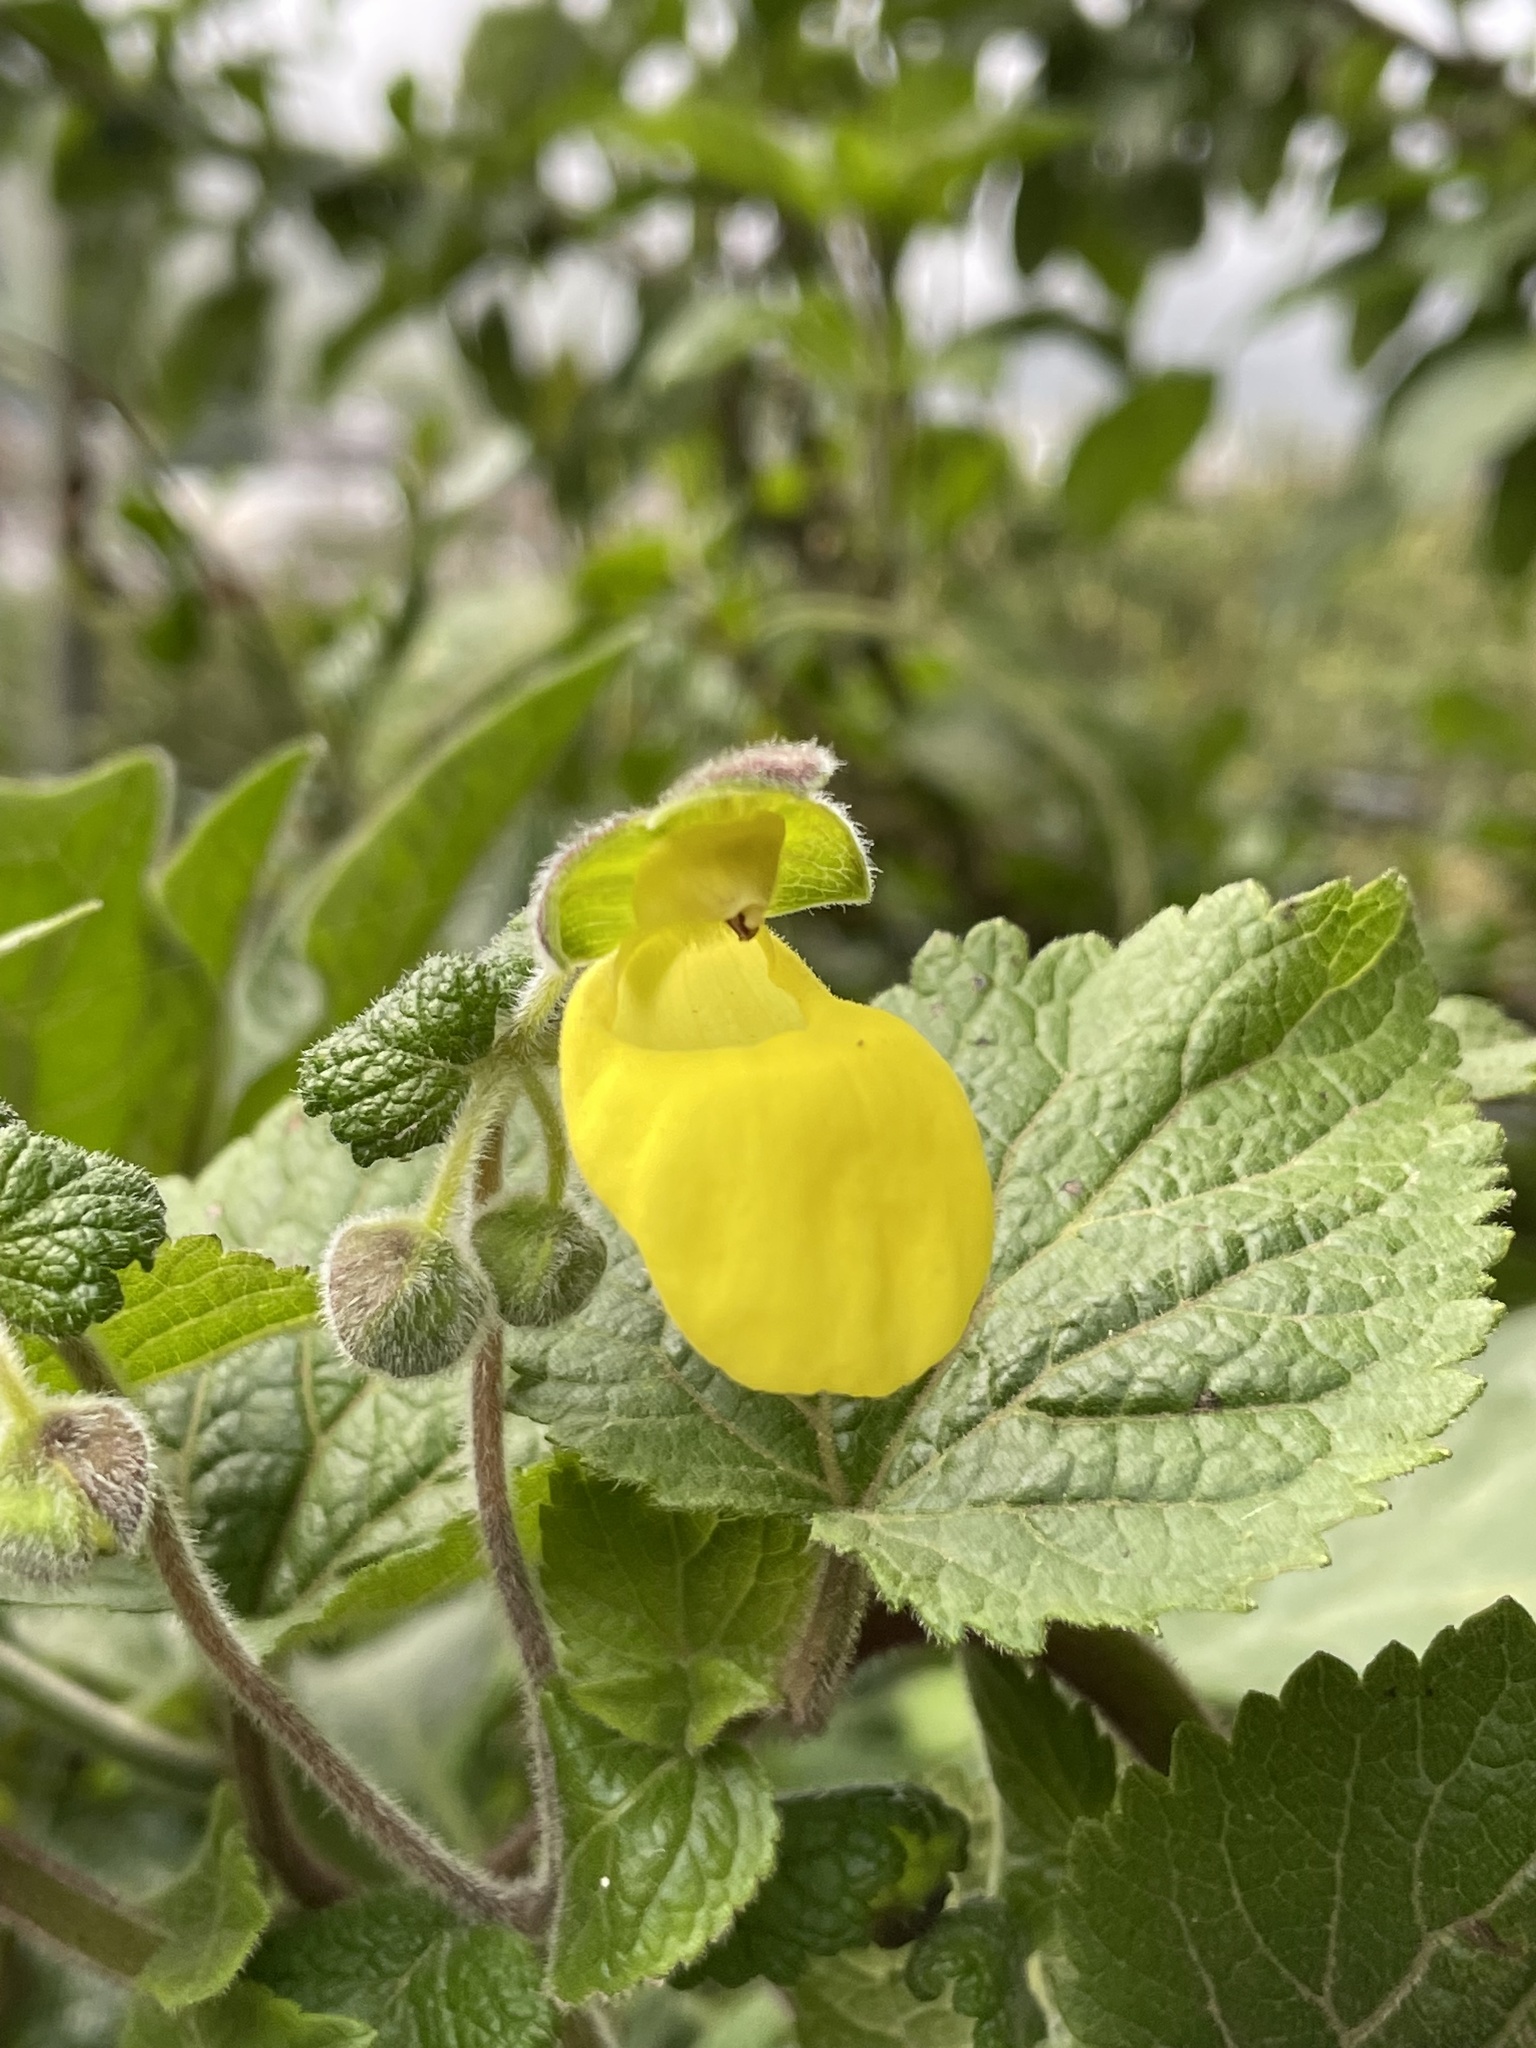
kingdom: Plantae
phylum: Tracheophyta
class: Magnoliopsida
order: Lamiales
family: Calceolariaceae
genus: Calceolaria
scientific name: Calceolaria lamiifolia
